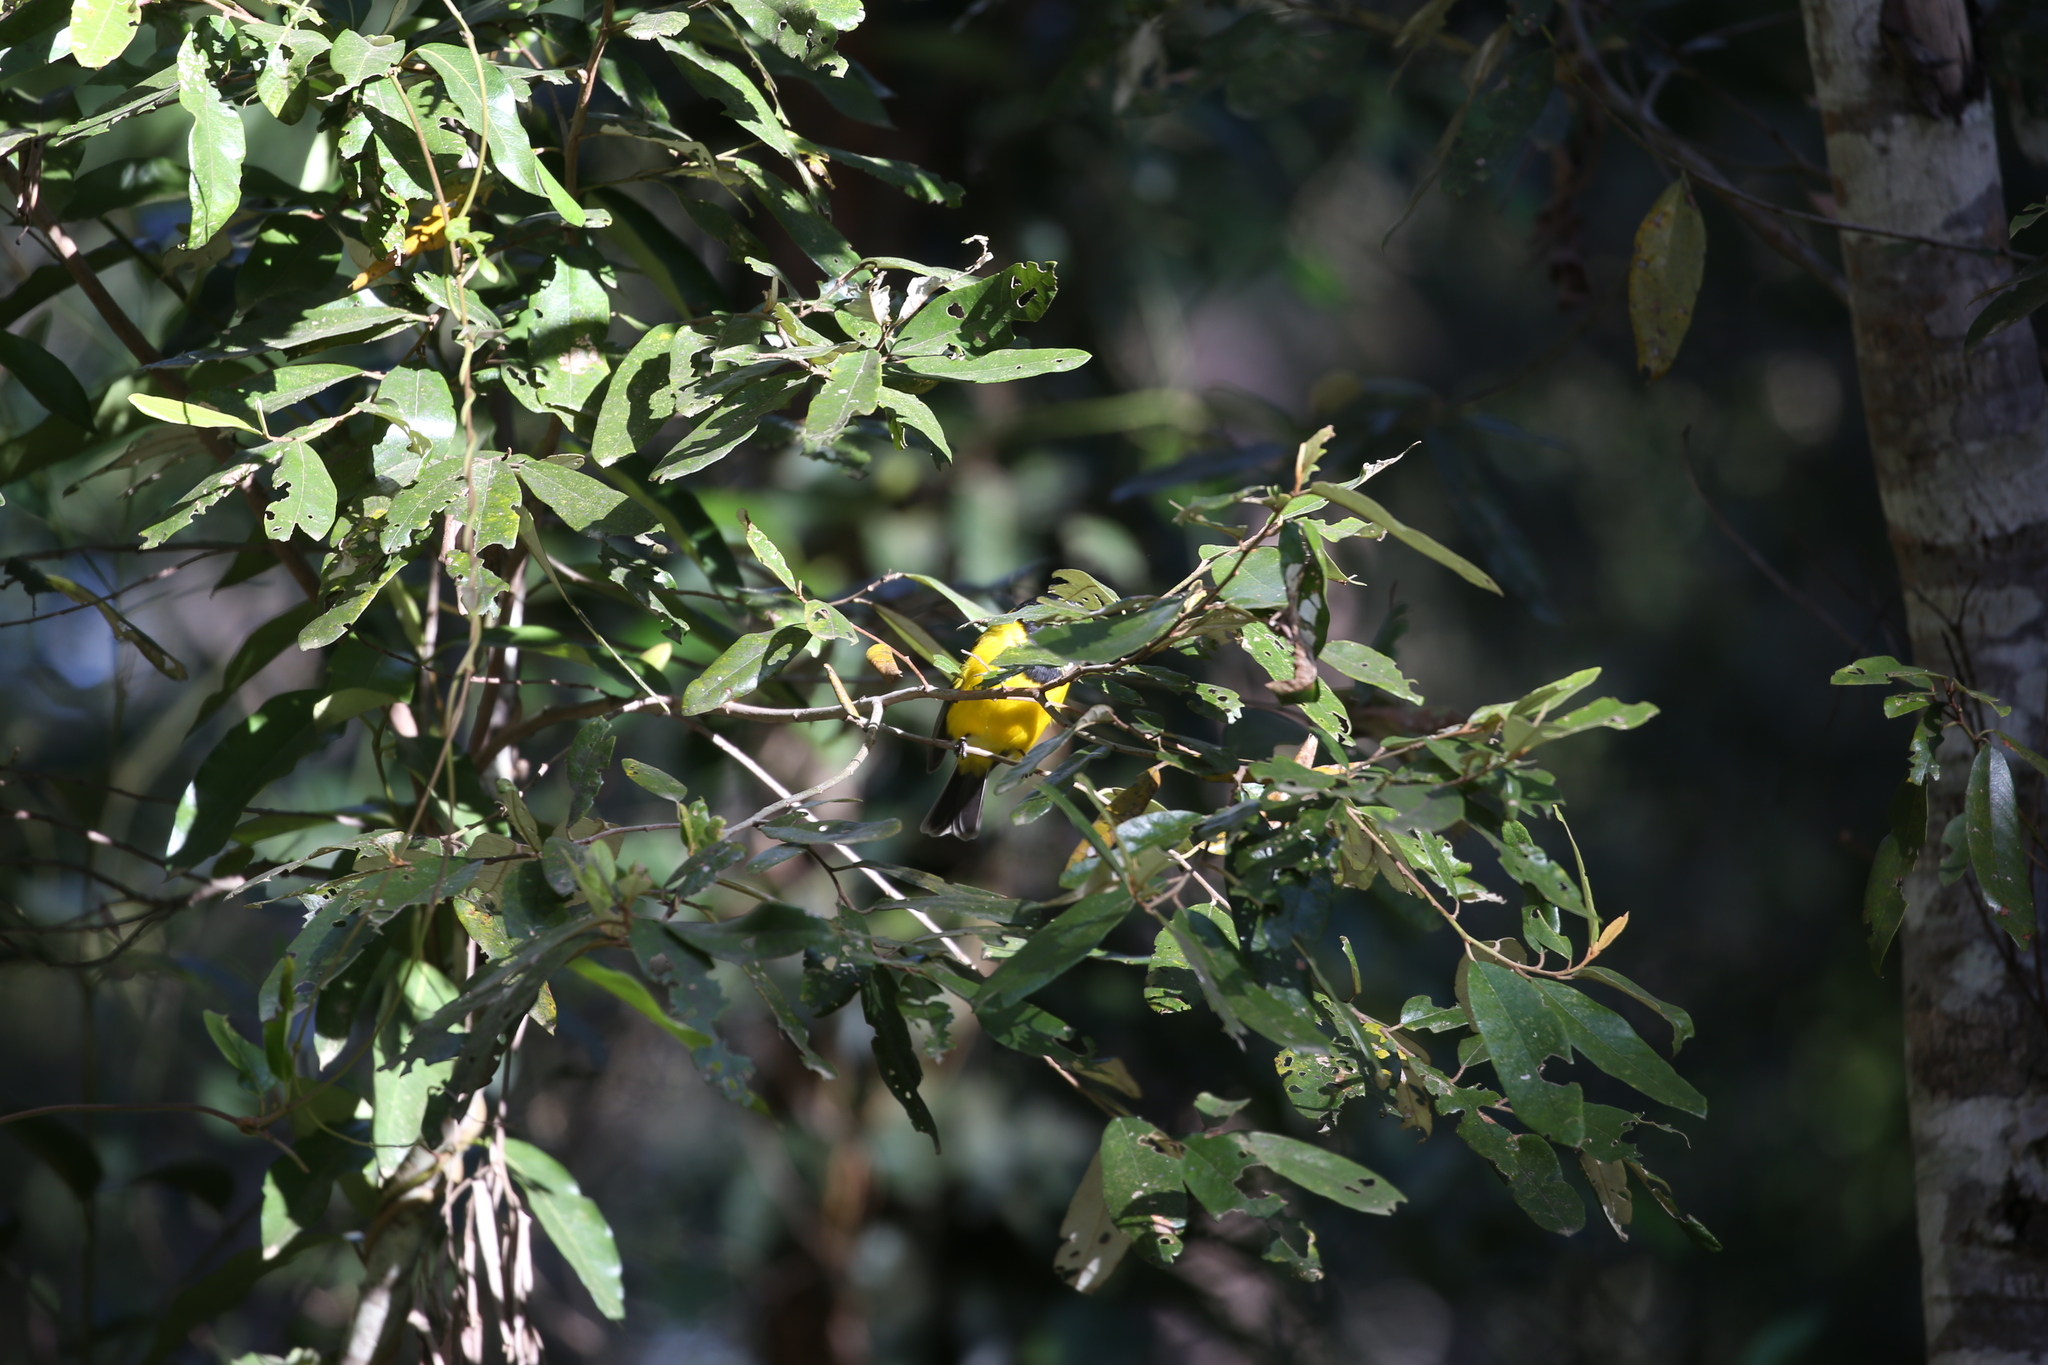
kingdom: Animalia
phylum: Chordata
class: Aves
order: Passeriformes
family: Pachycephalidae
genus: Pachycephala
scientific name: Pachycephala pectoralis
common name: Australian golden whistler
